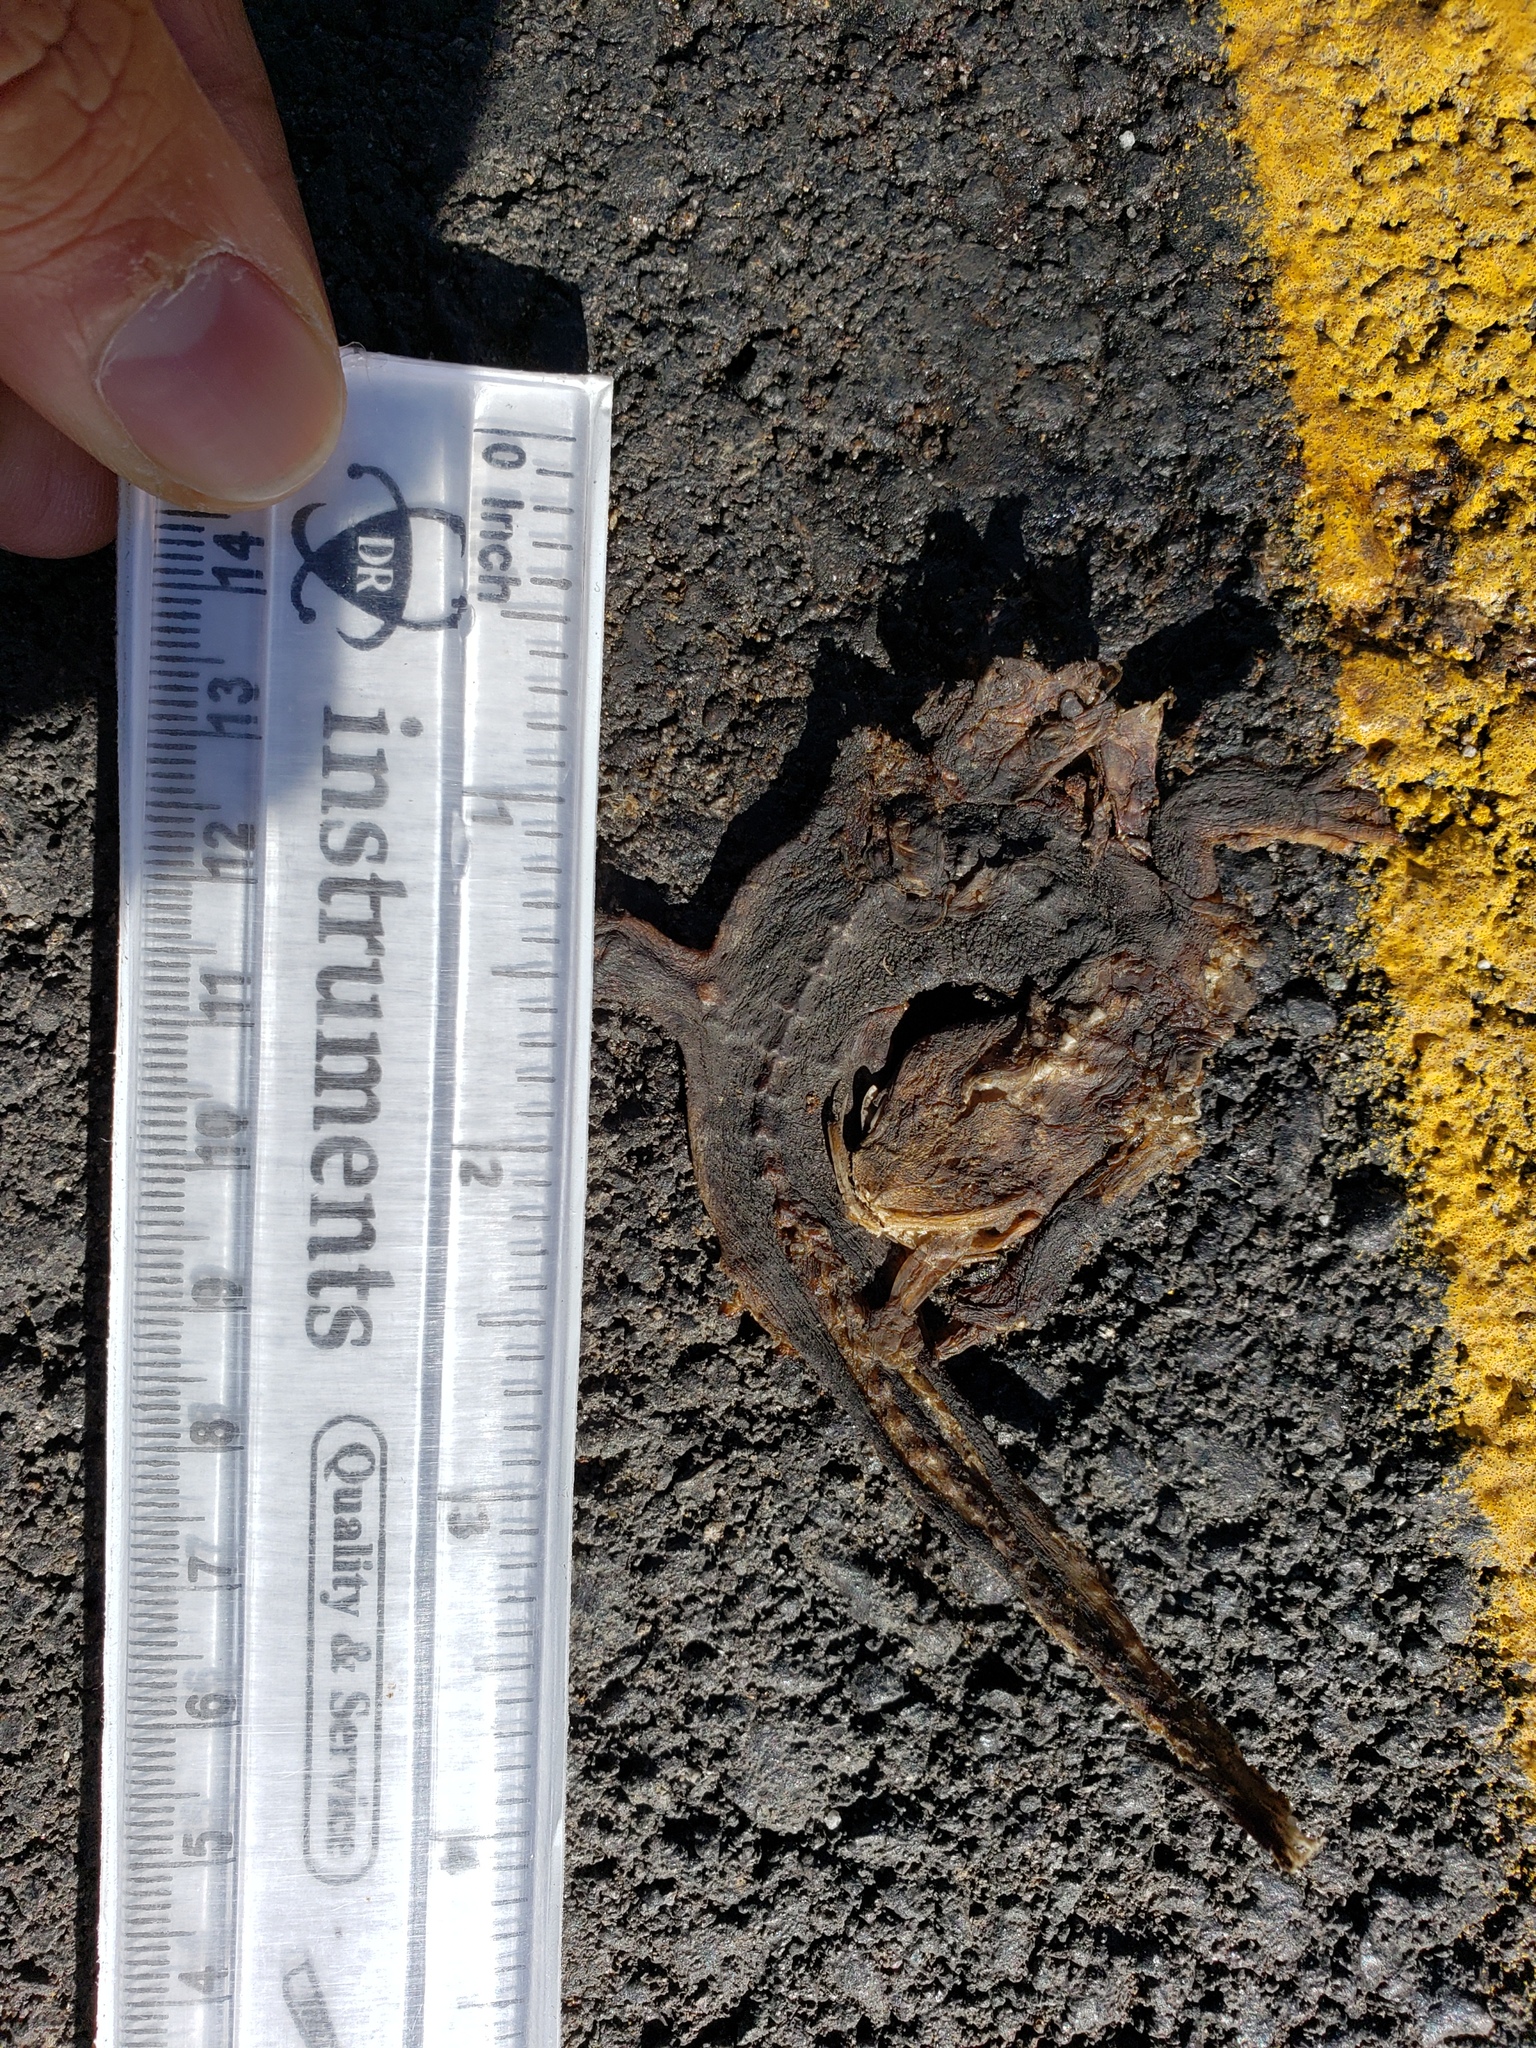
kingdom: Animalia
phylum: Chordata
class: Amphibia
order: Caudata
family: Salamandridae
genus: Taricha
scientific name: Taricha
